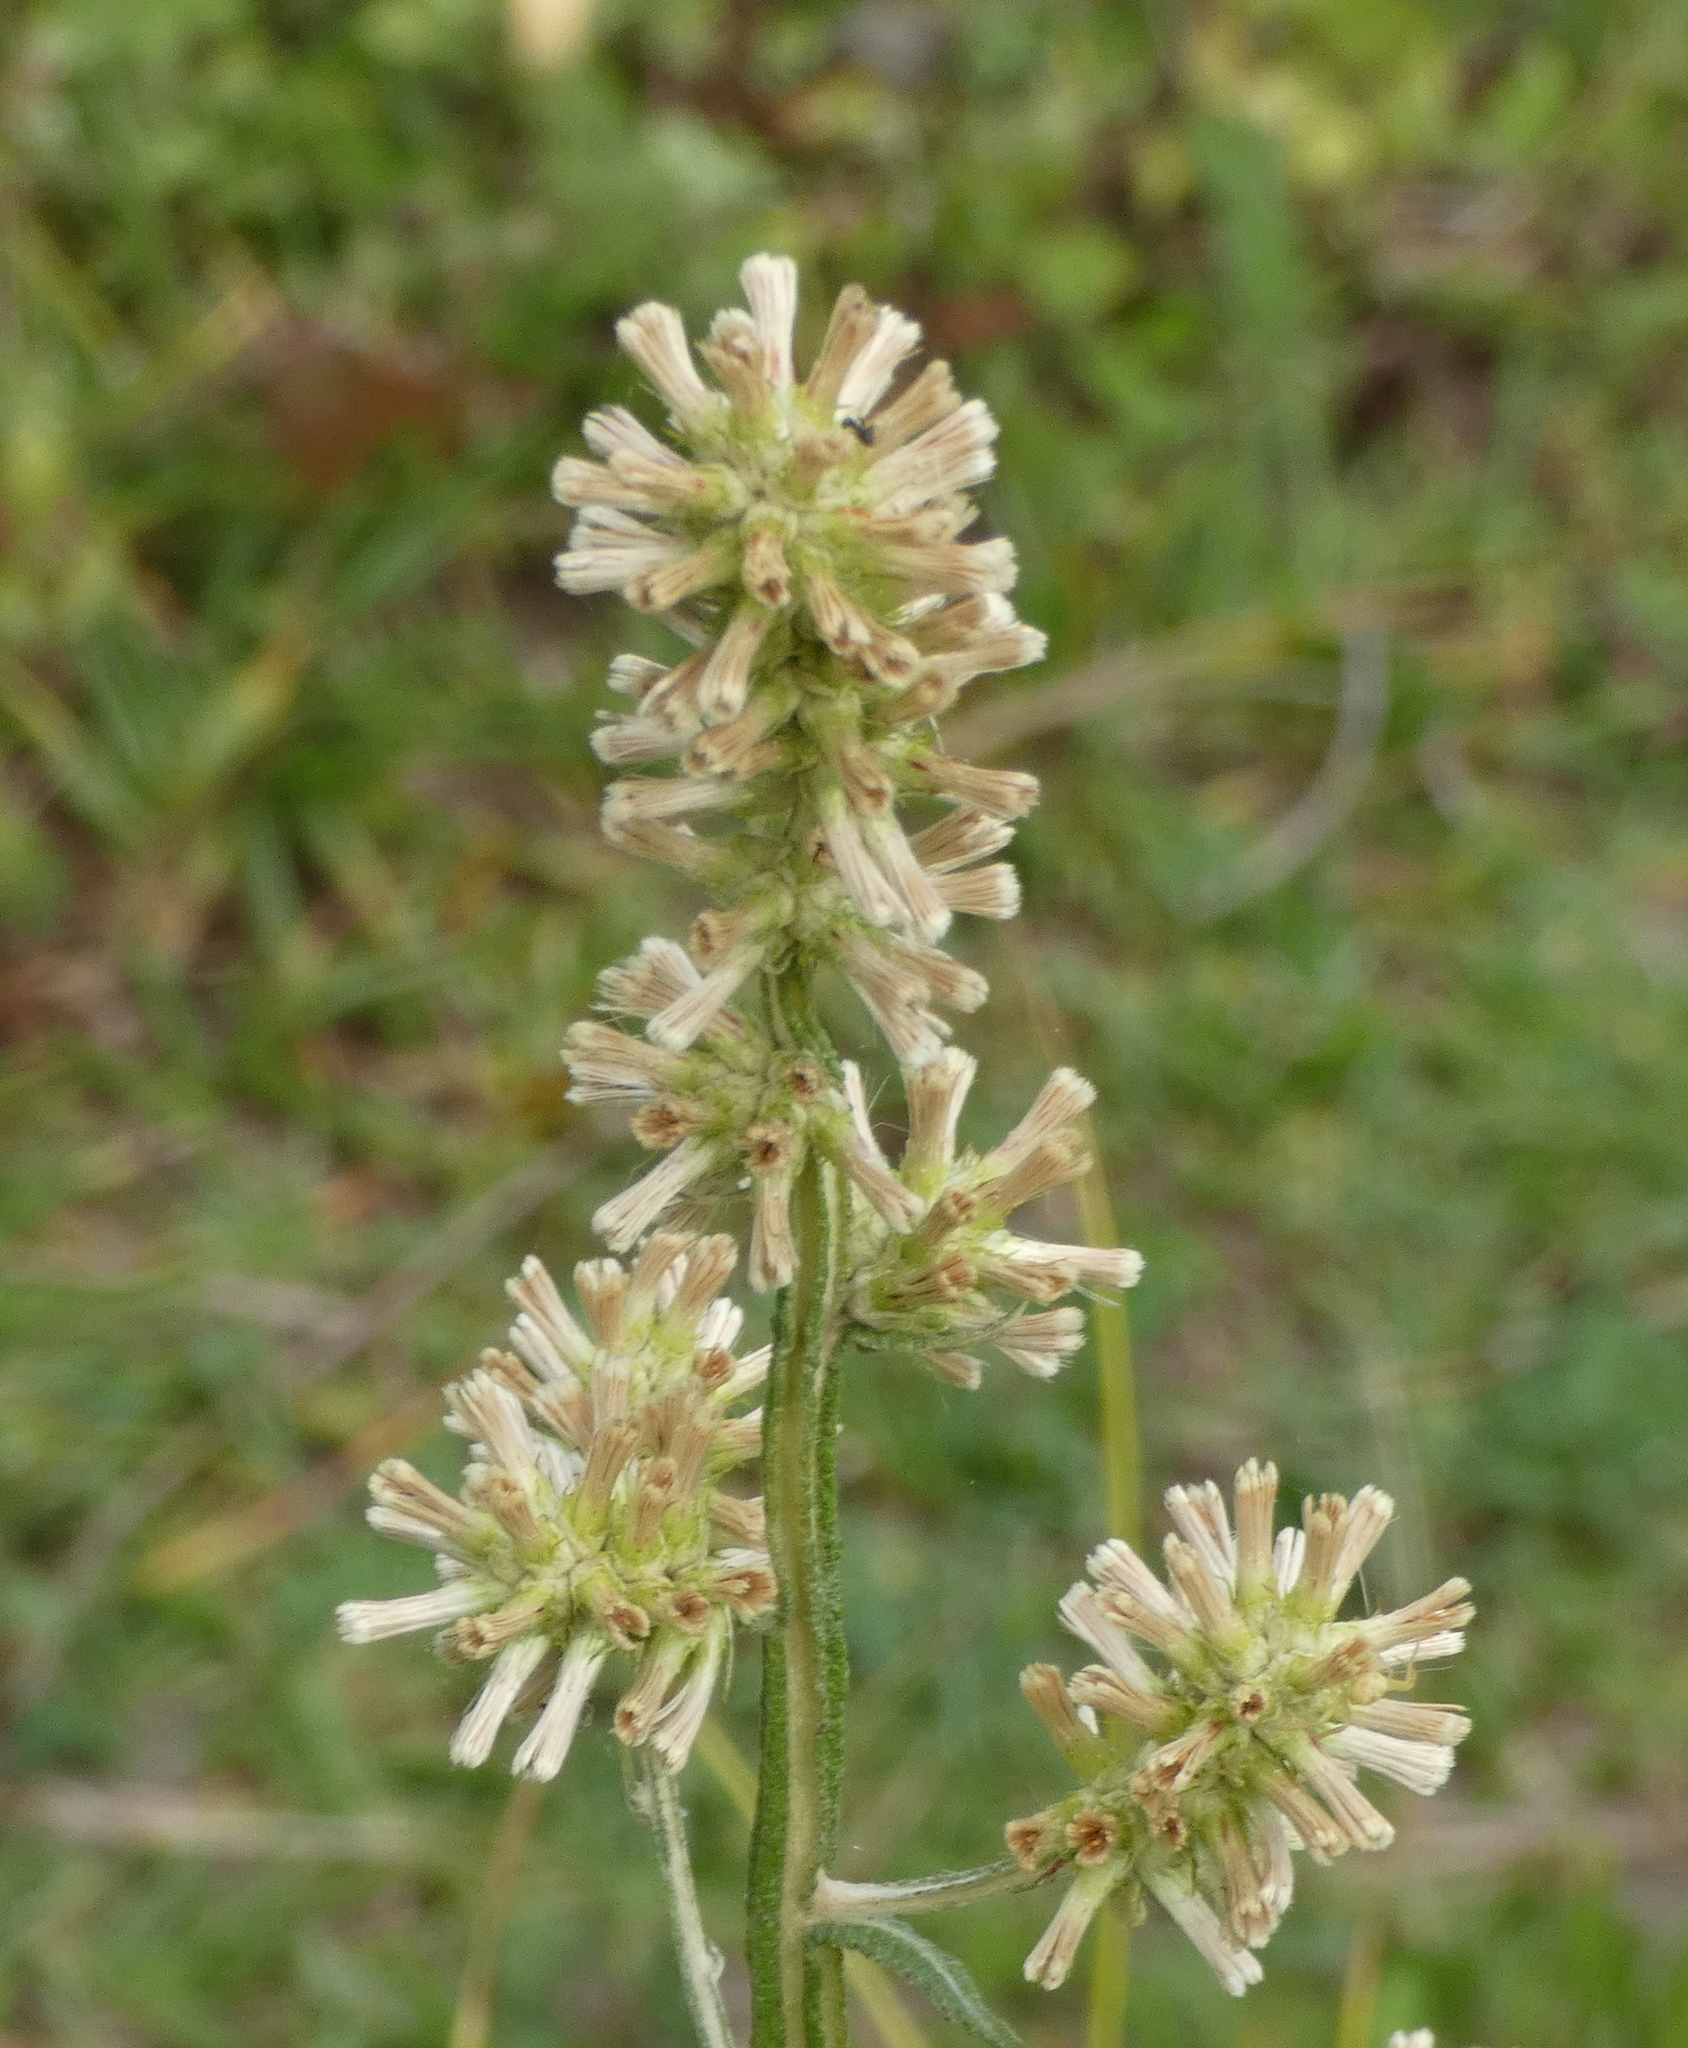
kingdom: Plantae
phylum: Tracheophyta
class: Magnoliopsida
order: Asterales
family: Asteraceae
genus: Pterocaulon
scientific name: Pterocaulon alopecuroides
